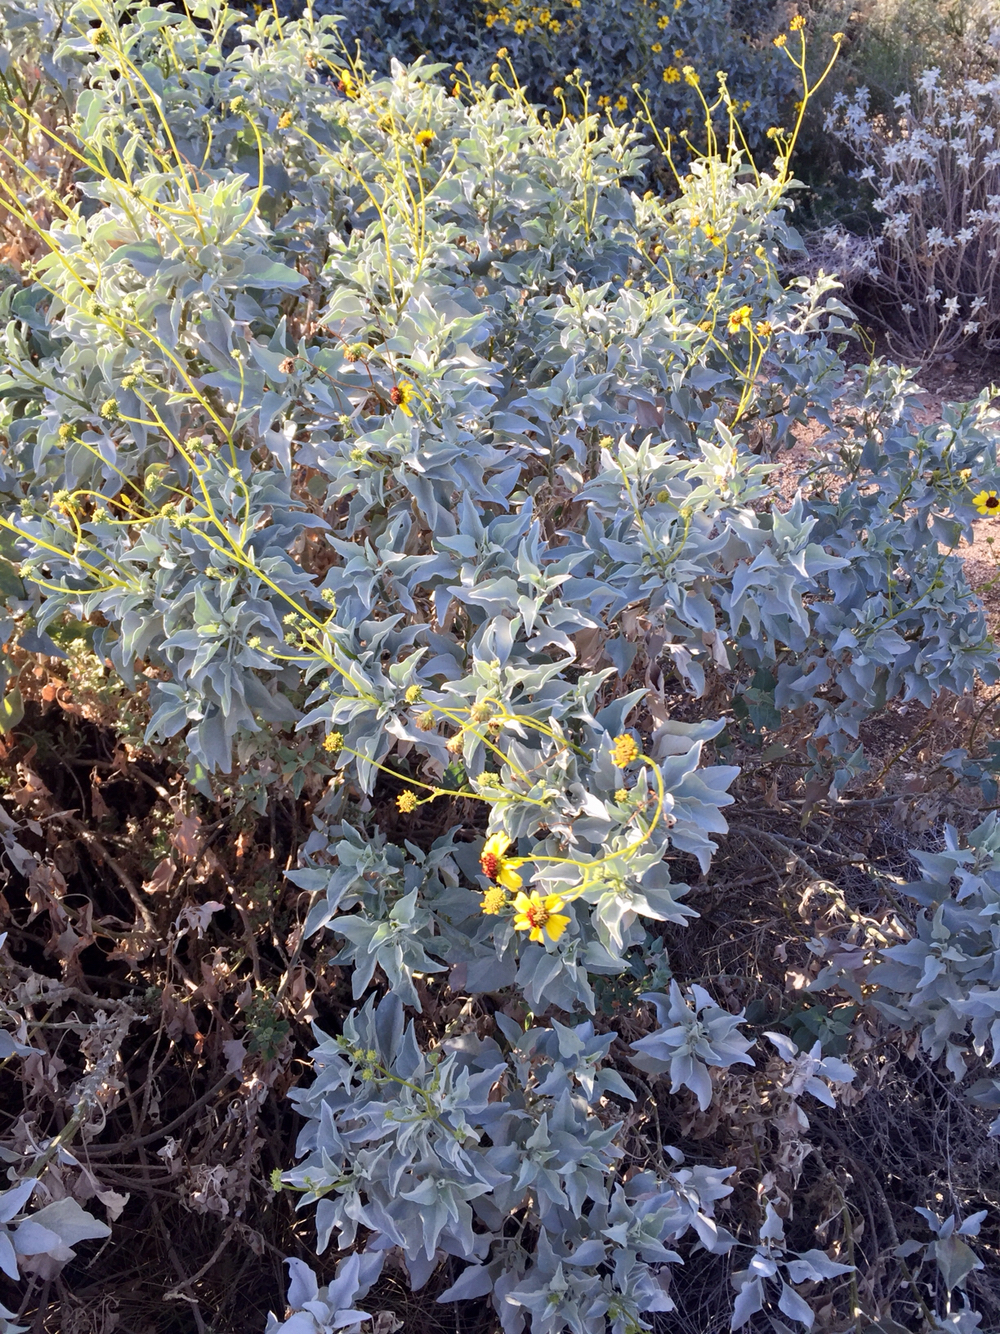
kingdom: Plantae
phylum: Tracheophyta
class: Magnoliopsida
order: Asterales
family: Asteraceae
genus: Encelia
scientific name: Encelia farinosa
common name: Brittlebush
